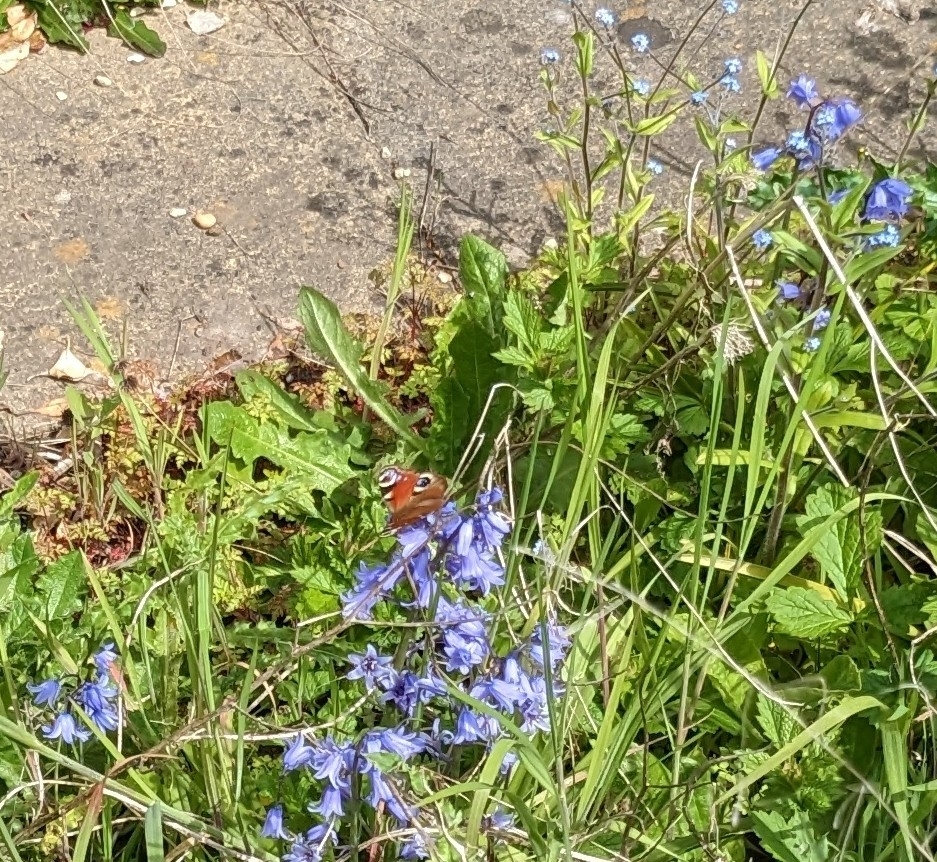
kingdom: Animalia
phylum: Arthropoda
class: Insecta
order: Lepidoptera
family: Nymphalidae
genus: Aglais
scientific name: Aglais io
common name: Peacock
